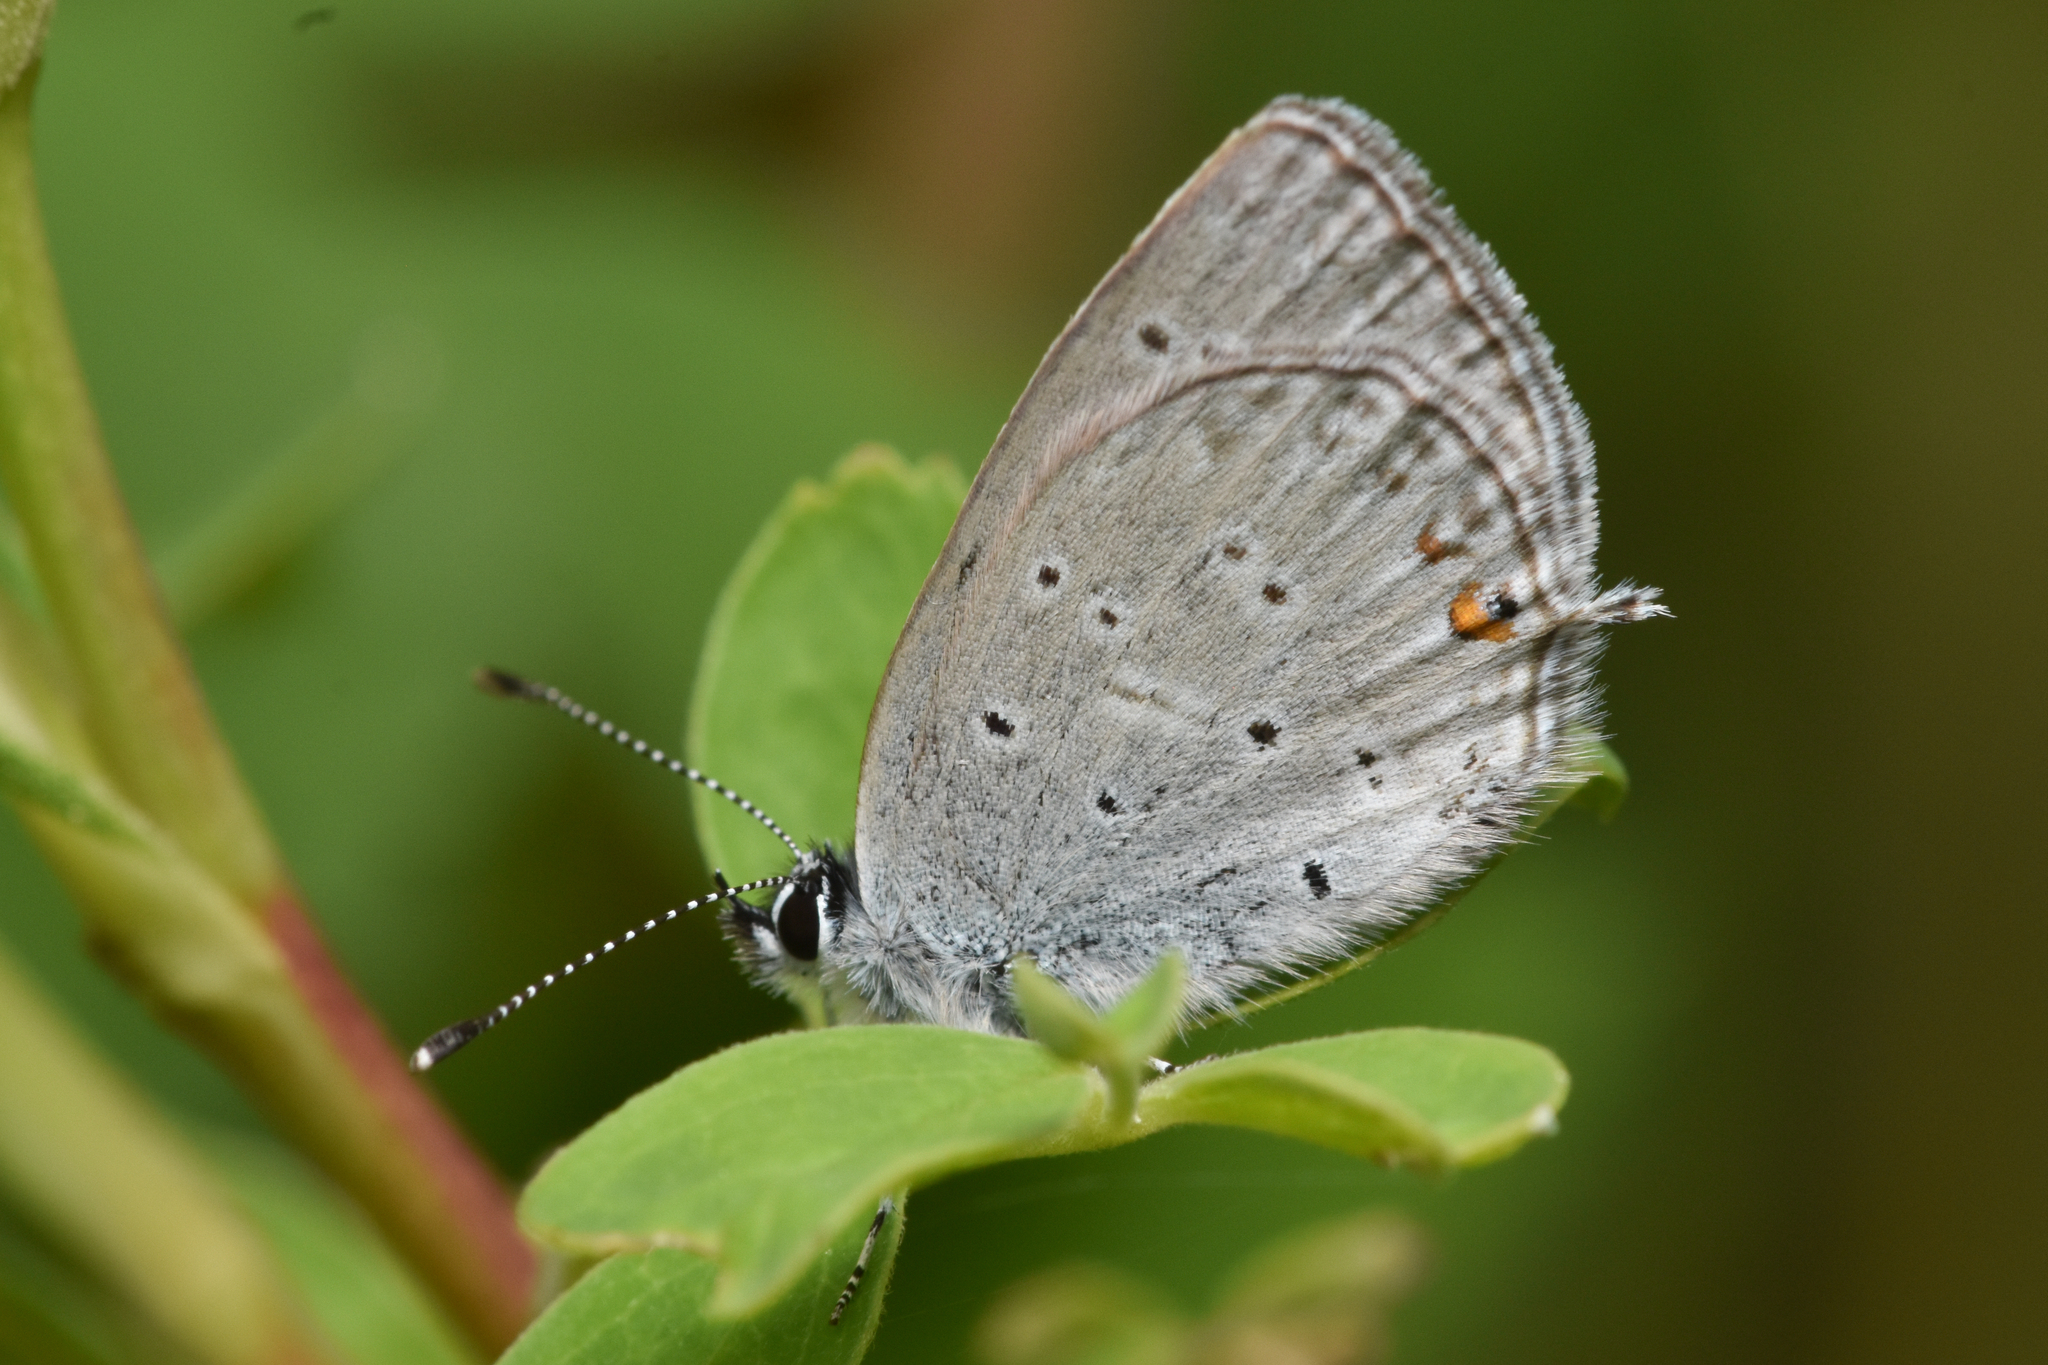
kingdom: Animalia
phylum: Arthropoda
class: Insecta
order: Lepidoptera
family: Lycaenidae
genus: Elkalyce
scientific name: Elkalyce amyntula
